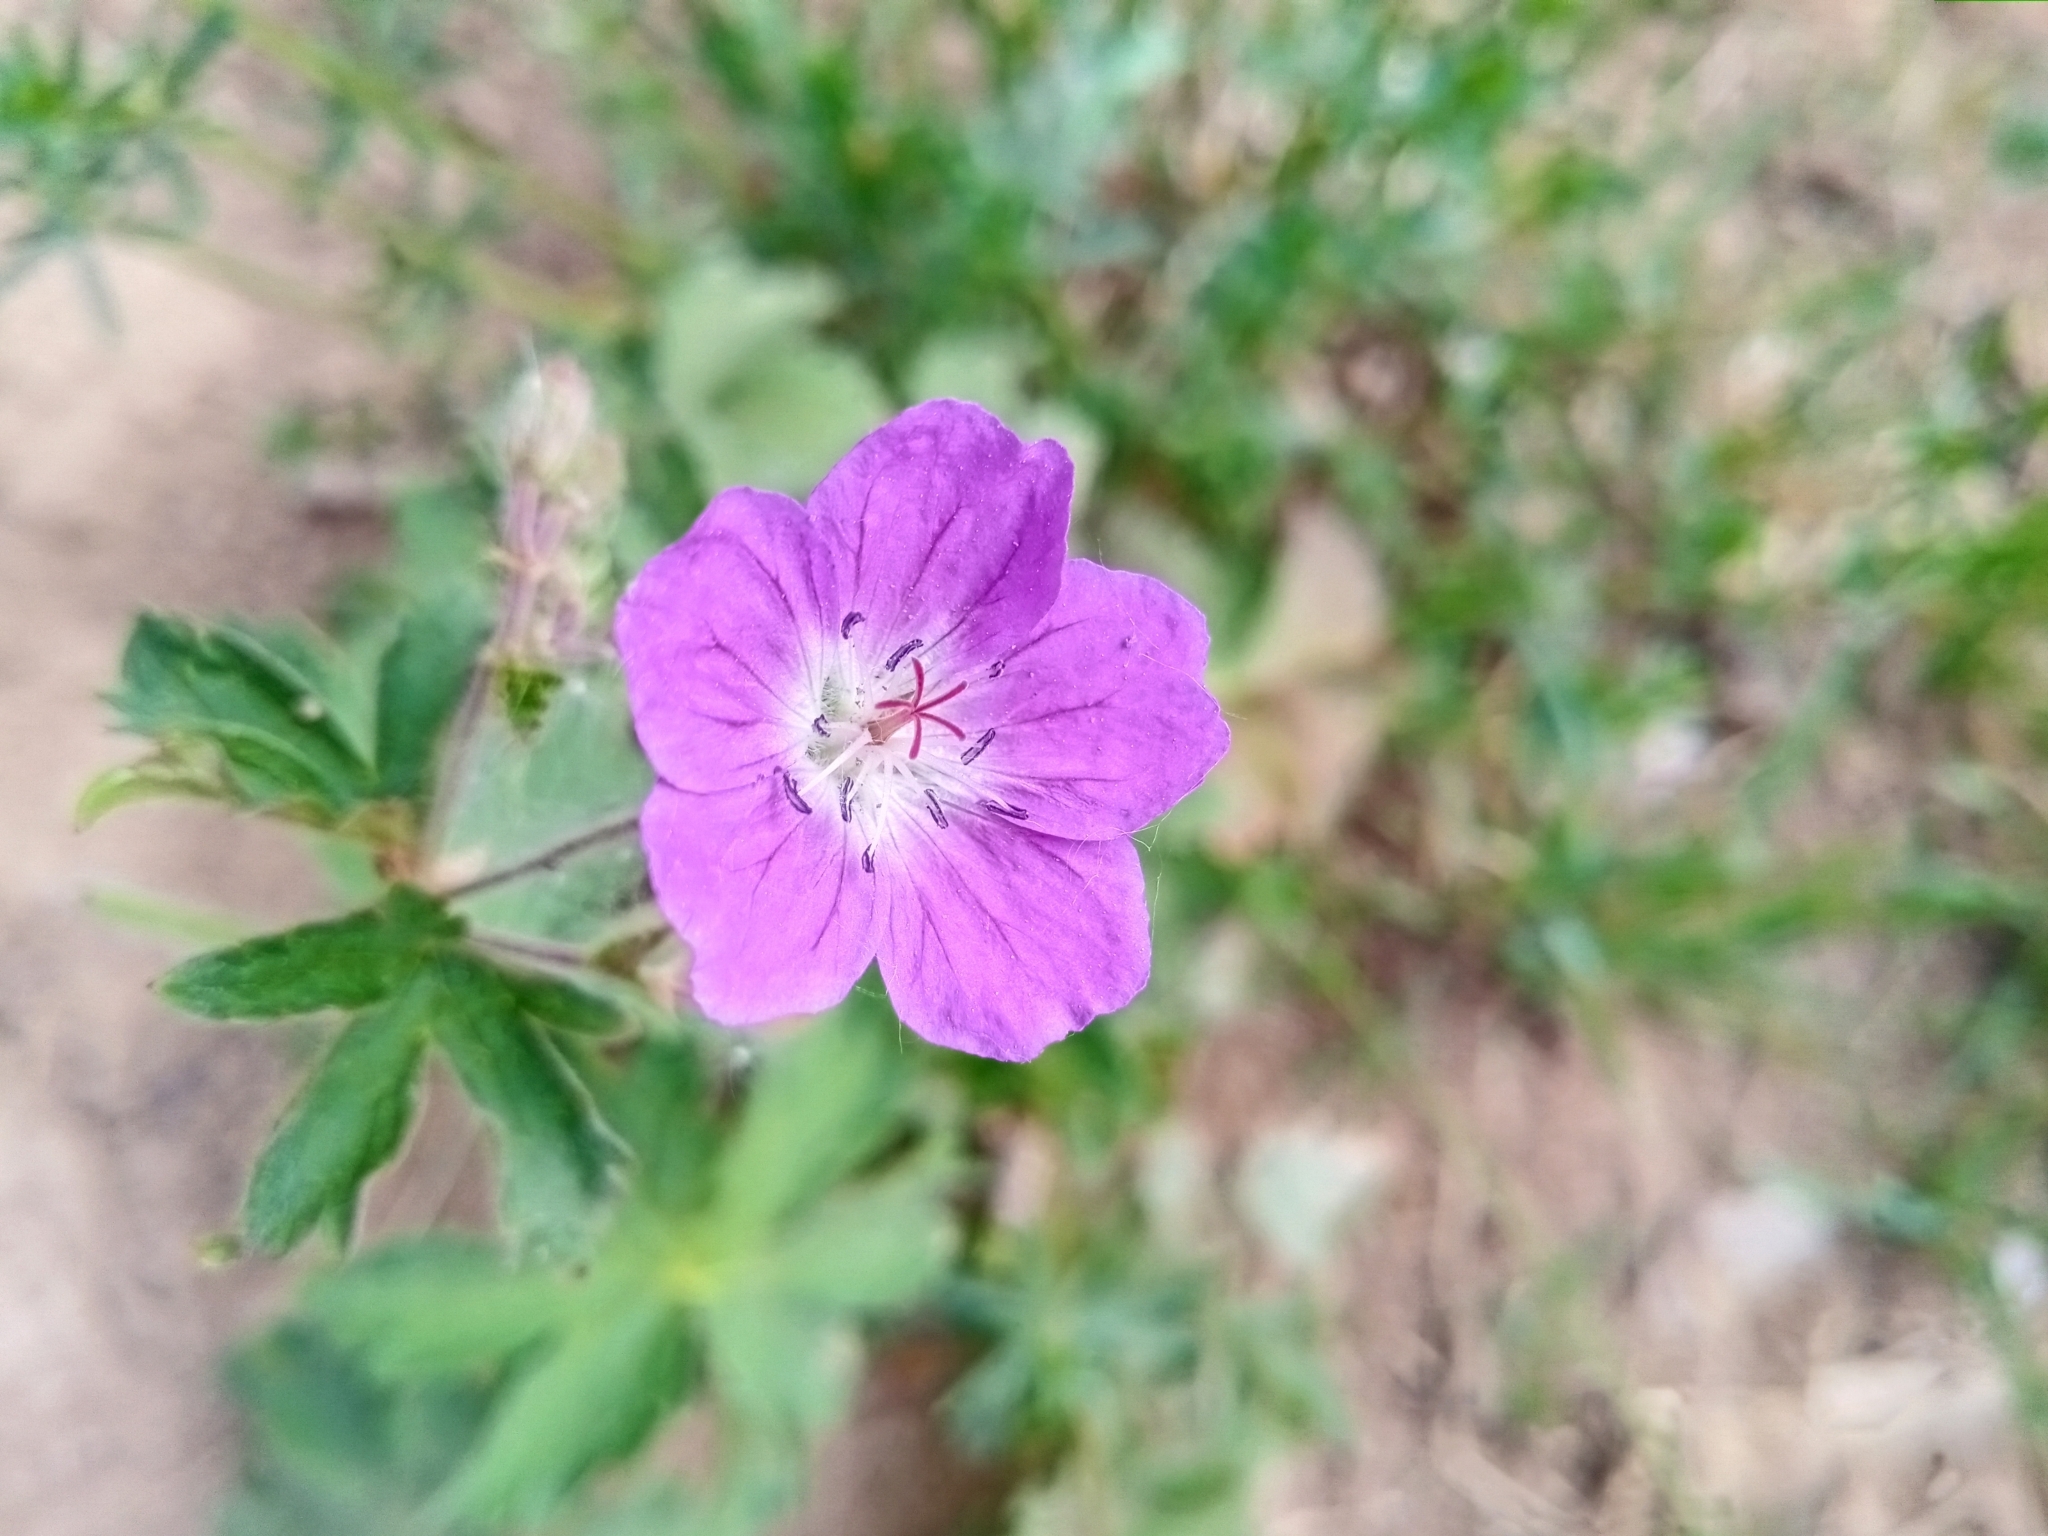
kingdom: Plantae
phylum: Tracheophyta
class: Magnoliopsida
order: Geraniales
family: Geraniaceae
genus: Geranium
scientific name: Geranium sylvaticum
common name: Wood crane's-bill
